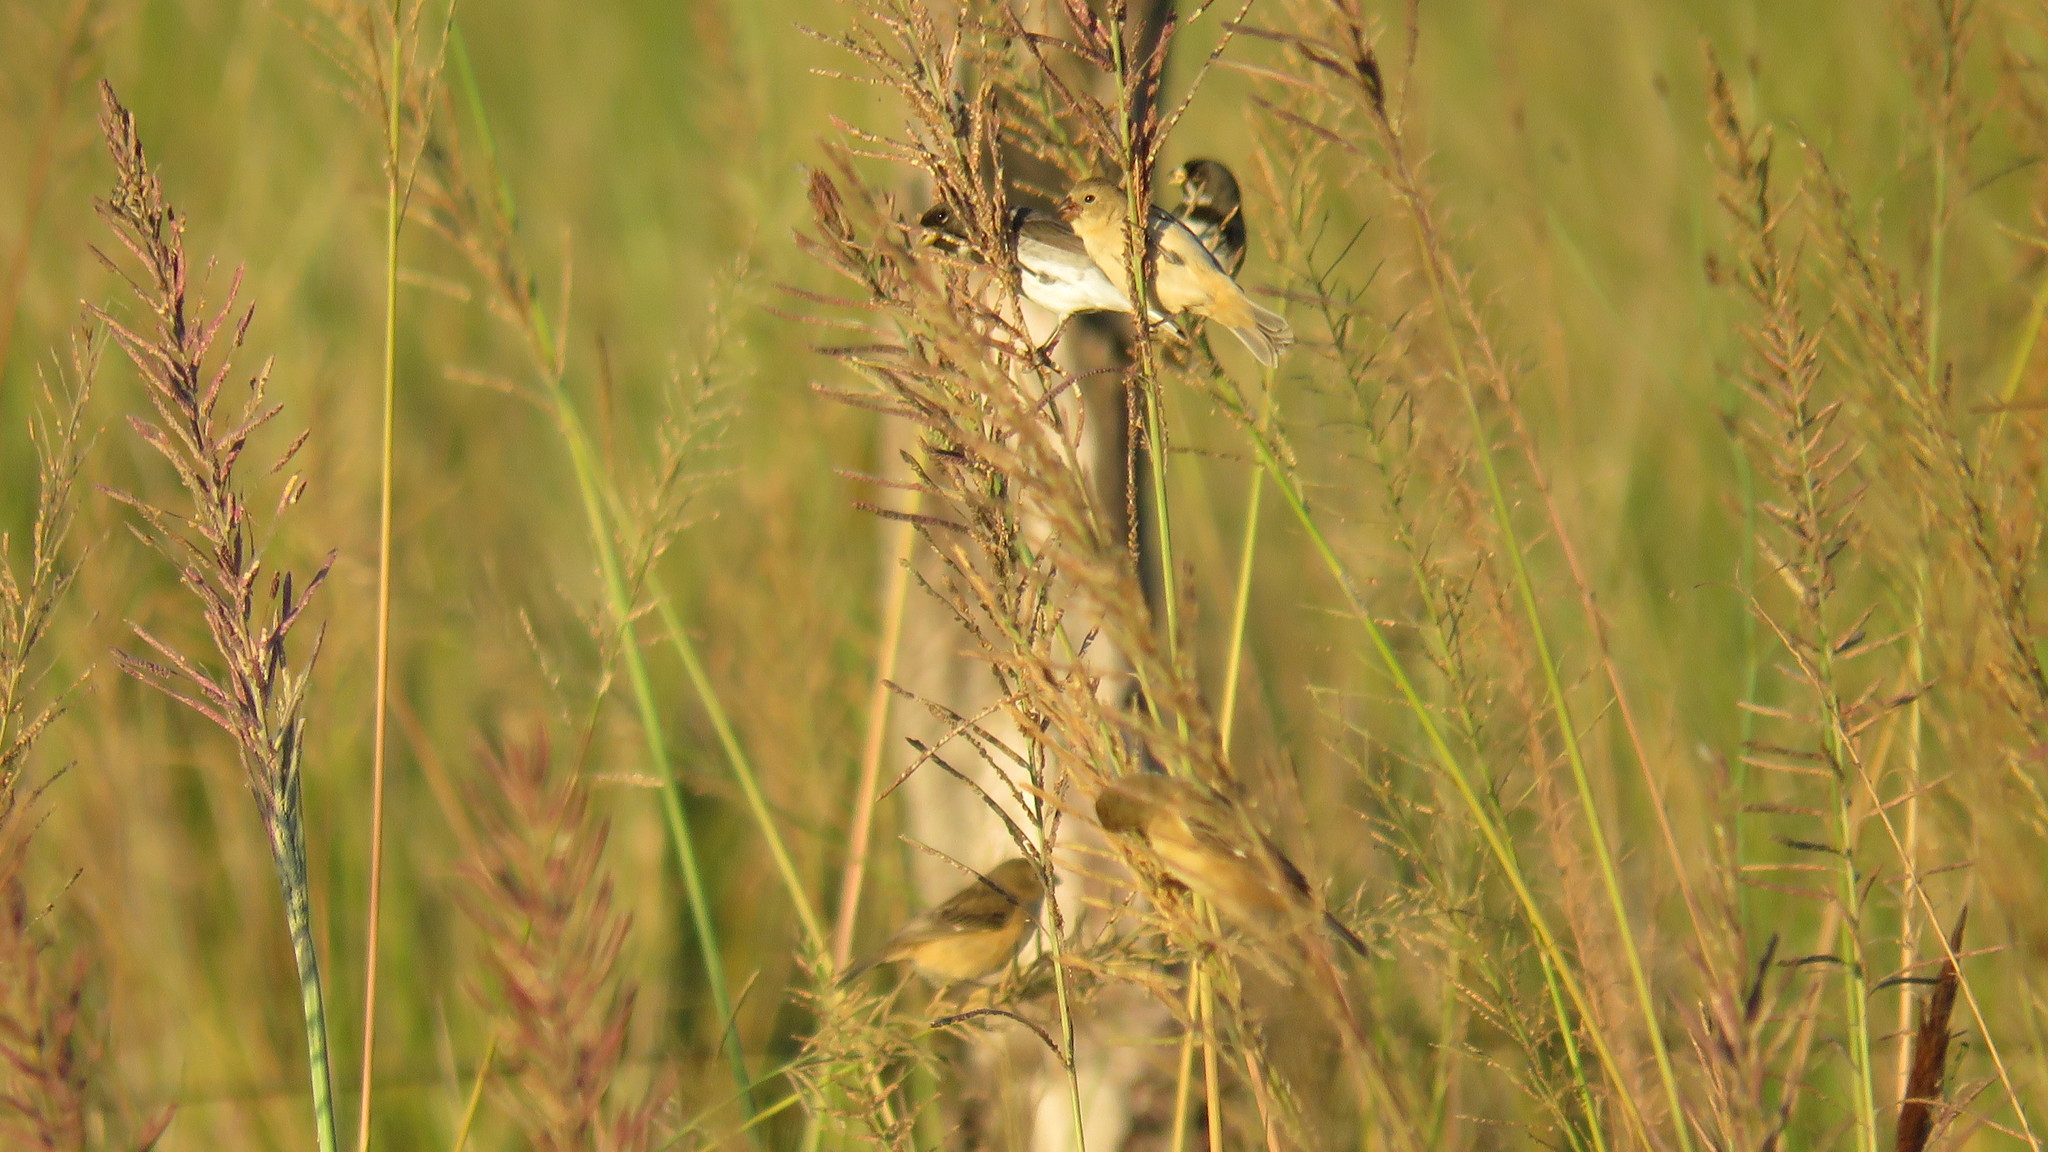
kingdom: Animalia
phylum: Chordata
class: Aves
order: Passeriformes
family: Thraupidae
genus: Sporophila
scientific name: Sporophila caerulescens
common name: Double-collared seedeater
